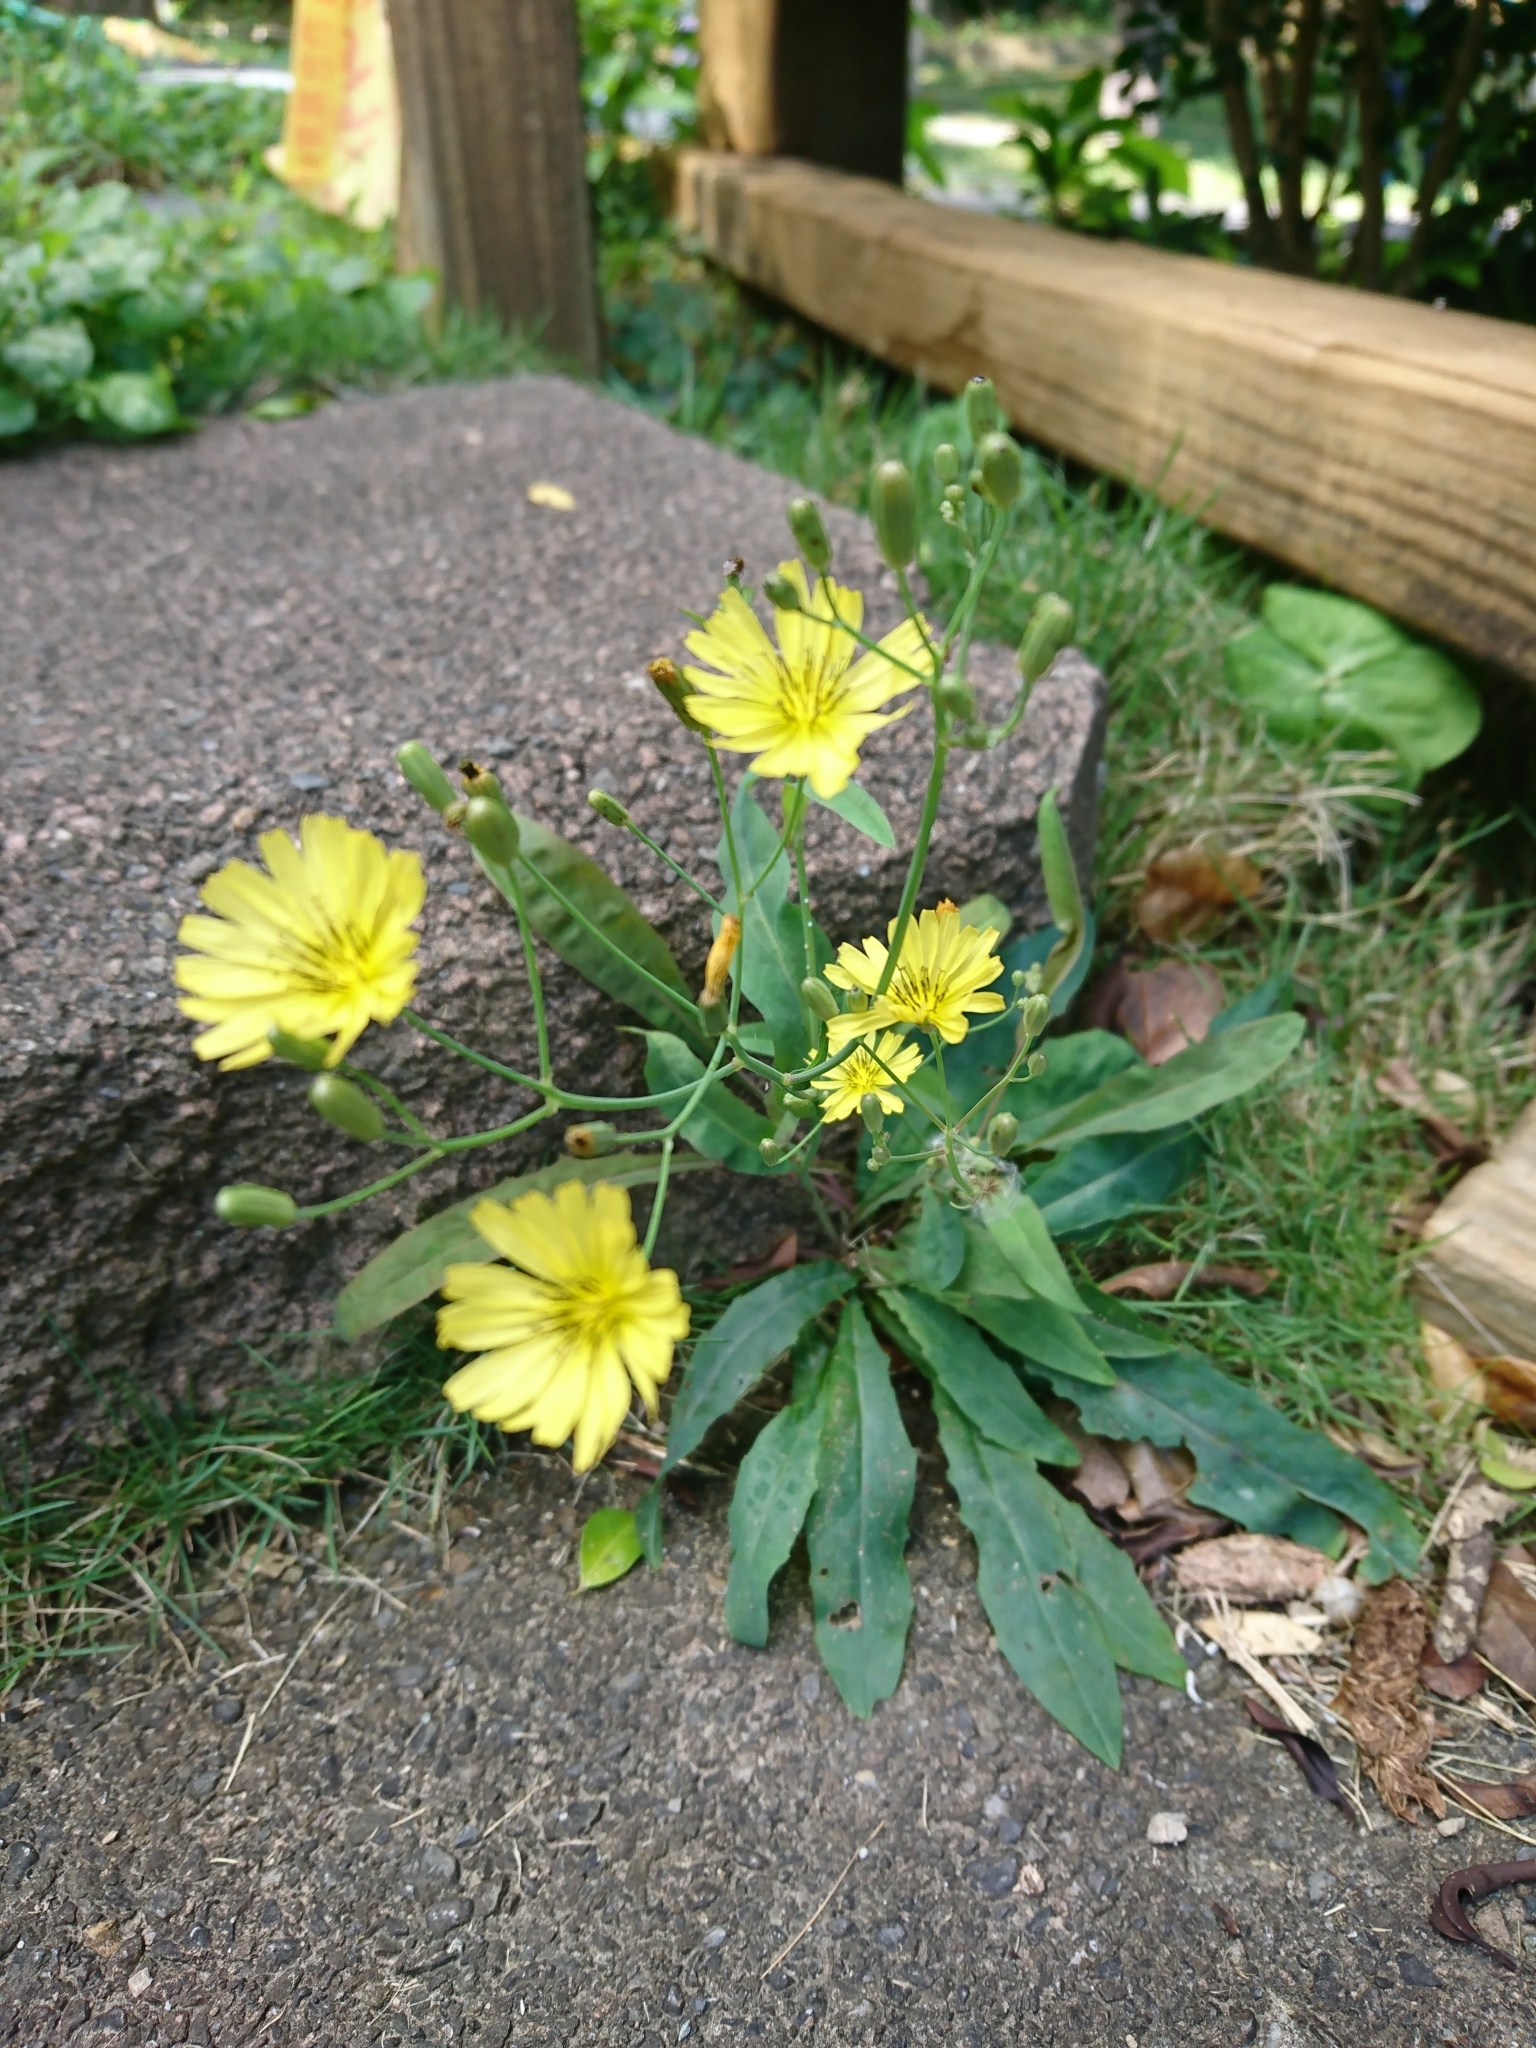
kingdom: Plantae
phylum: Tracheophyta
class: Magnoliopsida
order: Asterales
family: Asteraceae
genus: Ixeris
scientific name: Ixeris chinensis
